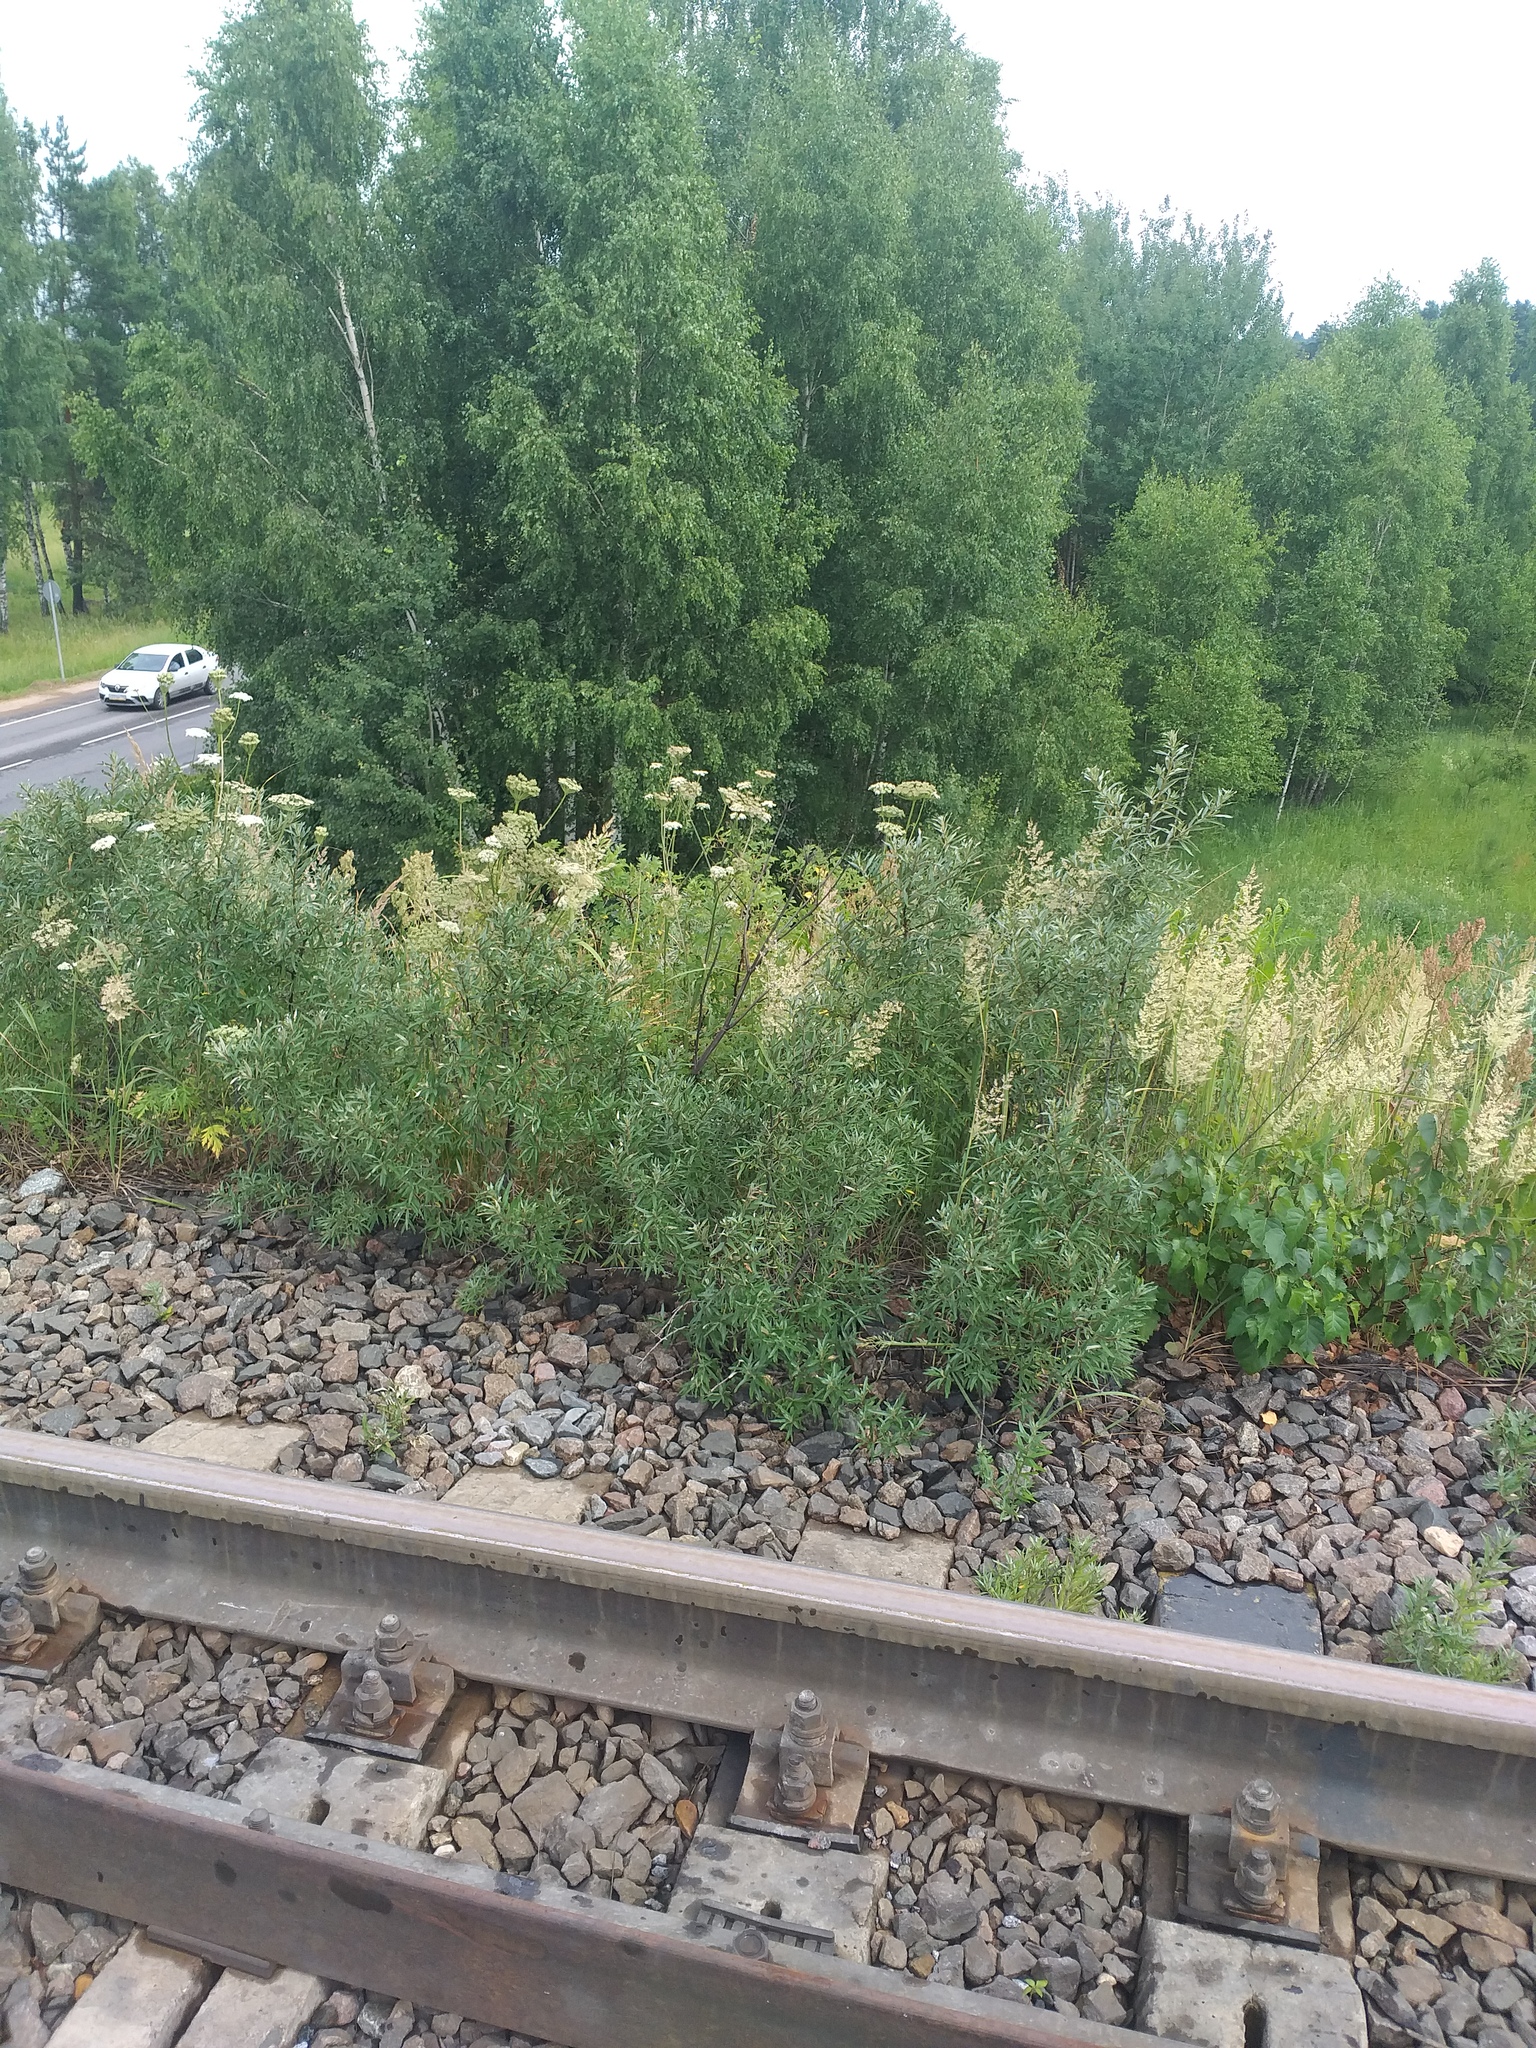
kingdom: Plantae
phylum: Tracheophyta
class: Magnoliopsida
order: Rosales
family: Elaeagnaceae
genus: Hippophae
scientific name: Hippophae rhamnoides
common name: Sea-buckthorn
